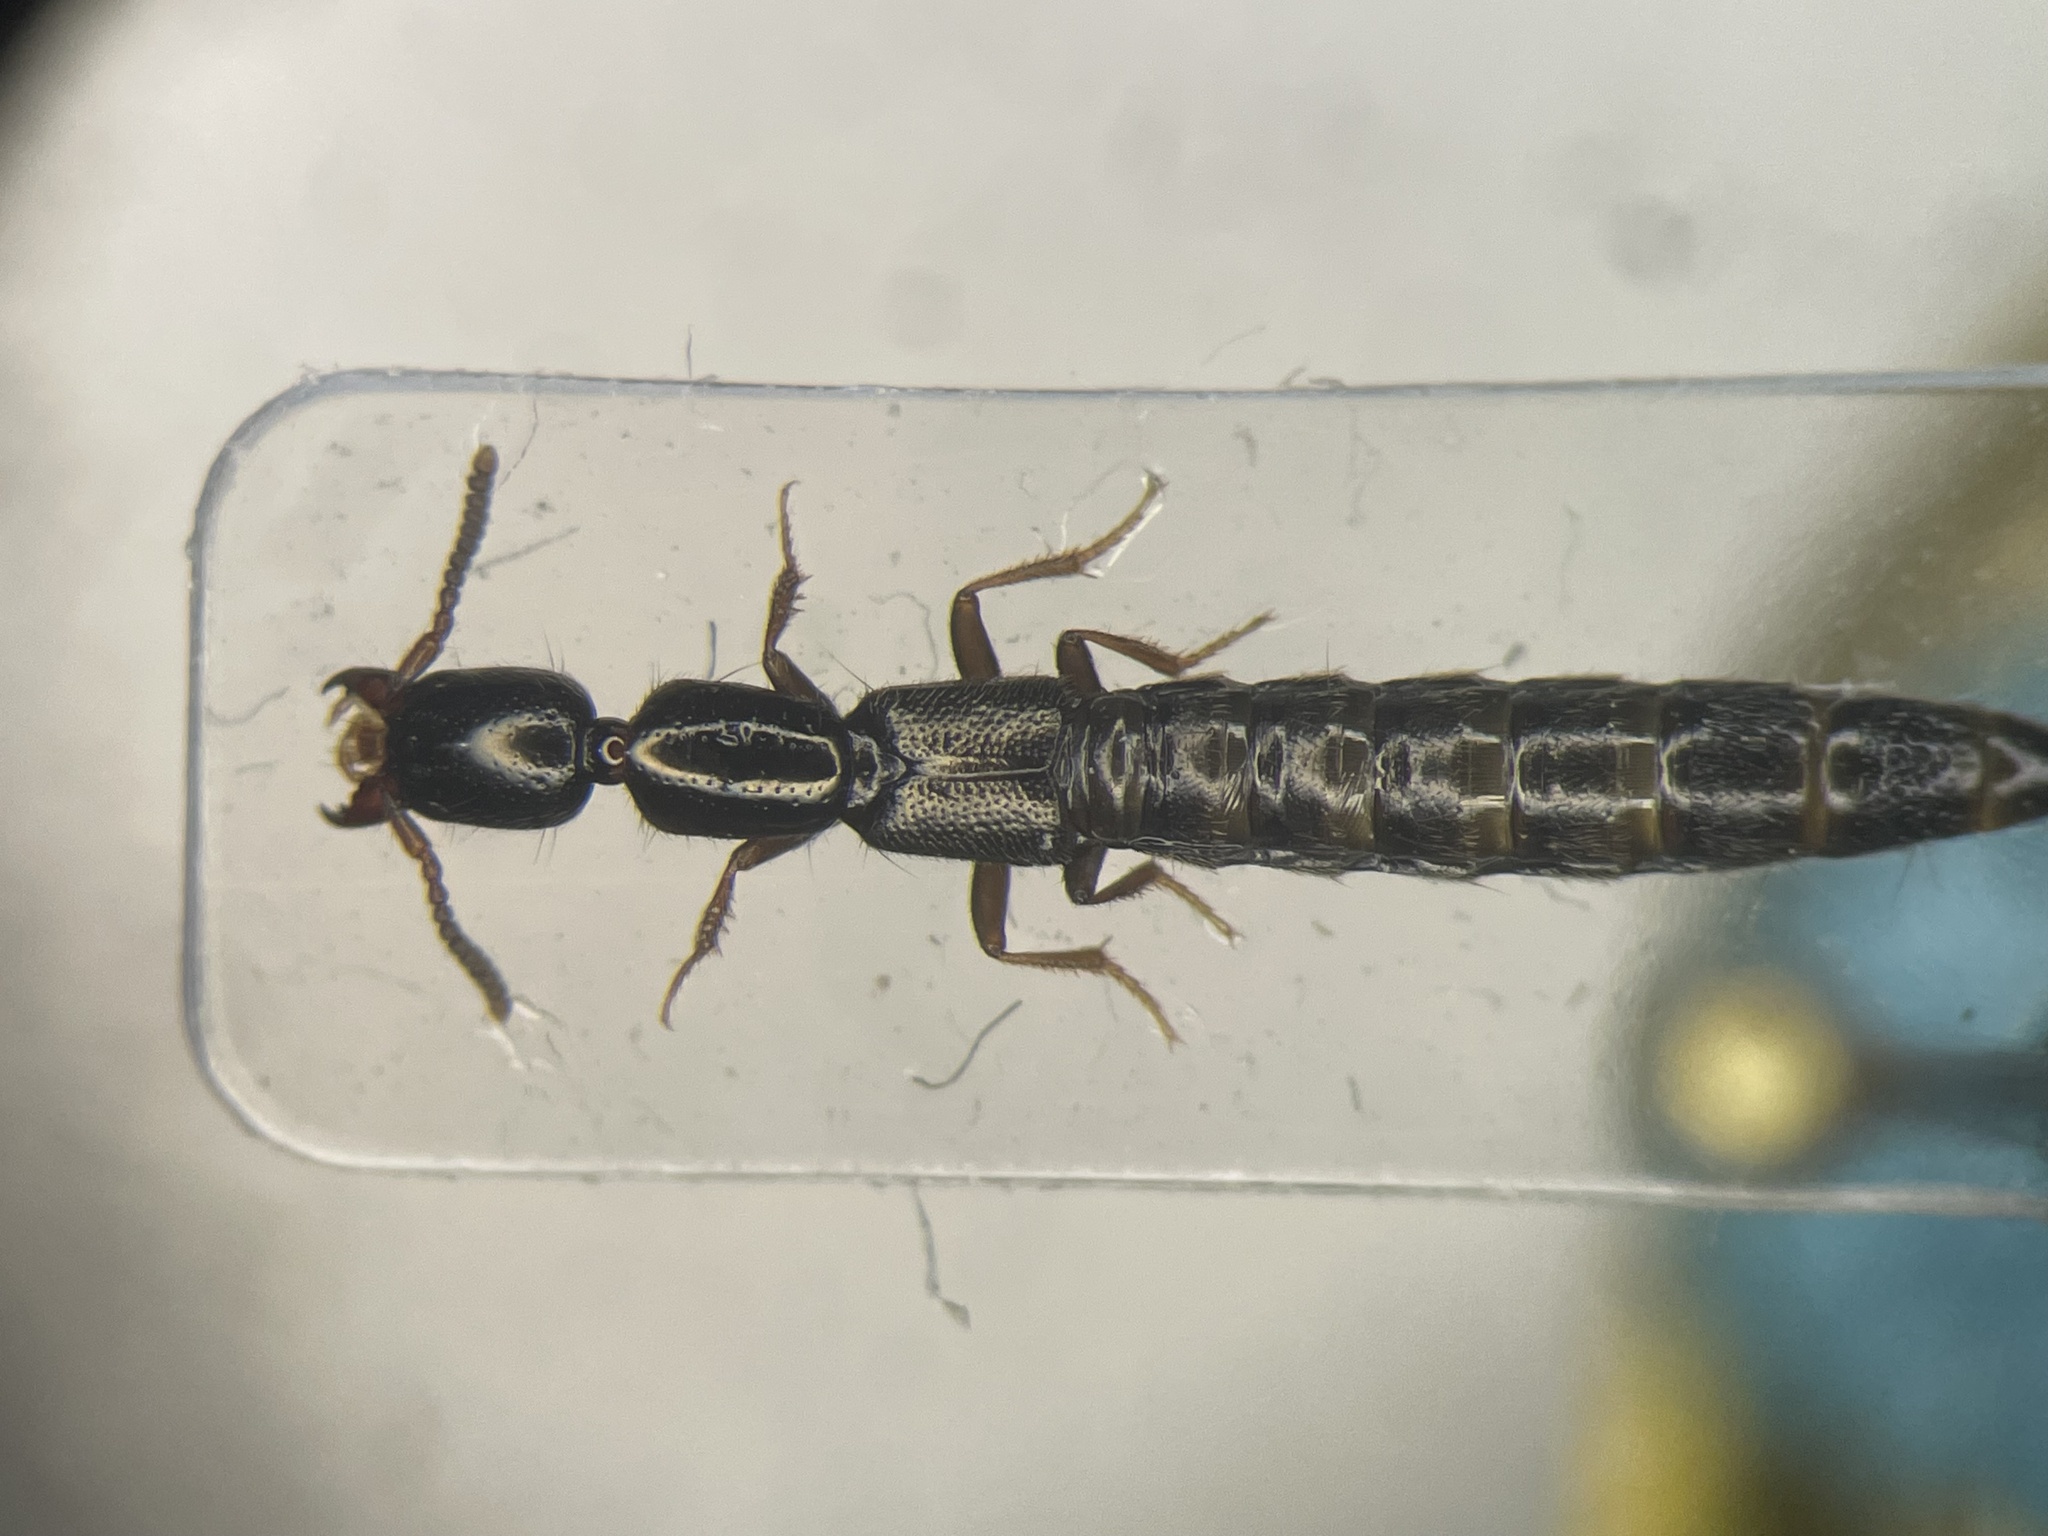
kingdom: Animalia
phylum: Arthropoda
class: Insecta
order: Coleoptera
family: Staphylinidae
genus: Xantholinus
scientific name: Xantholinus linearis
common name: Staph beetle
